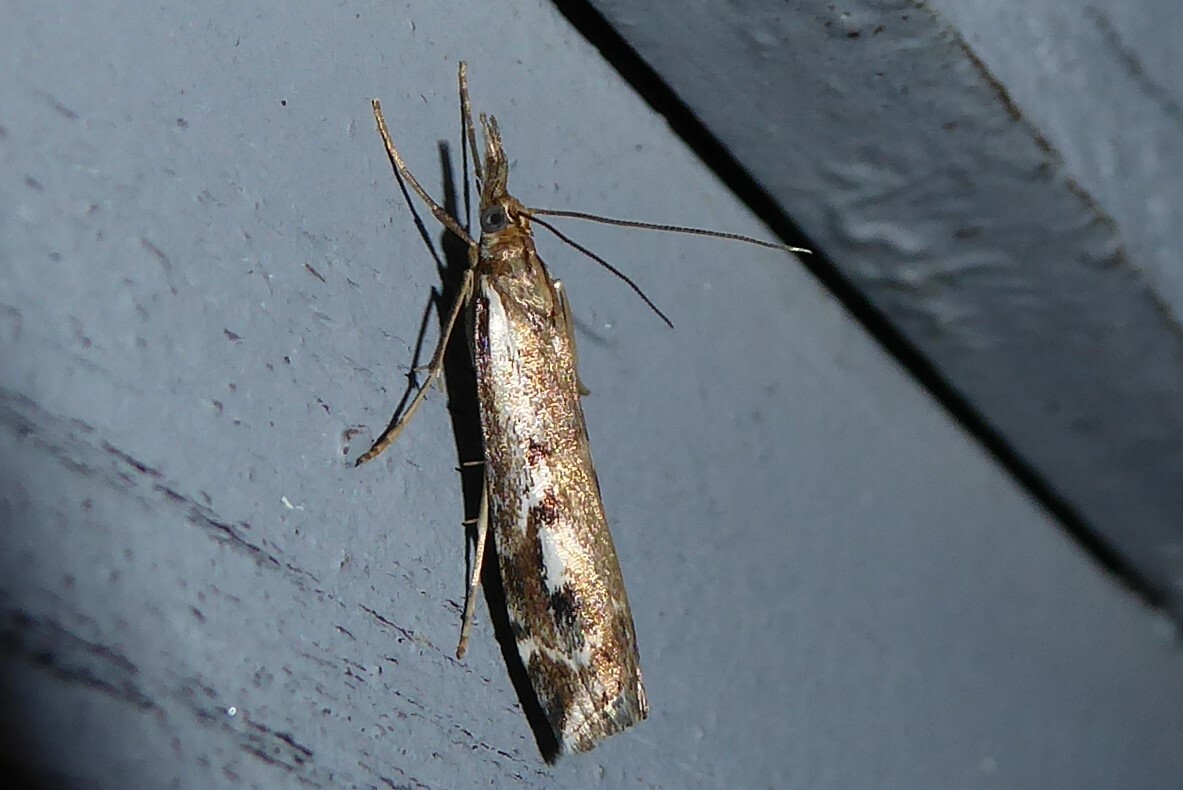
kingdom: Animalia
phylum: Arthropoda
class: Insecta
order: Lepidoptera
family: Crambidae
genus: Orocrambus
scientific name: Orocrambus vulgaris
